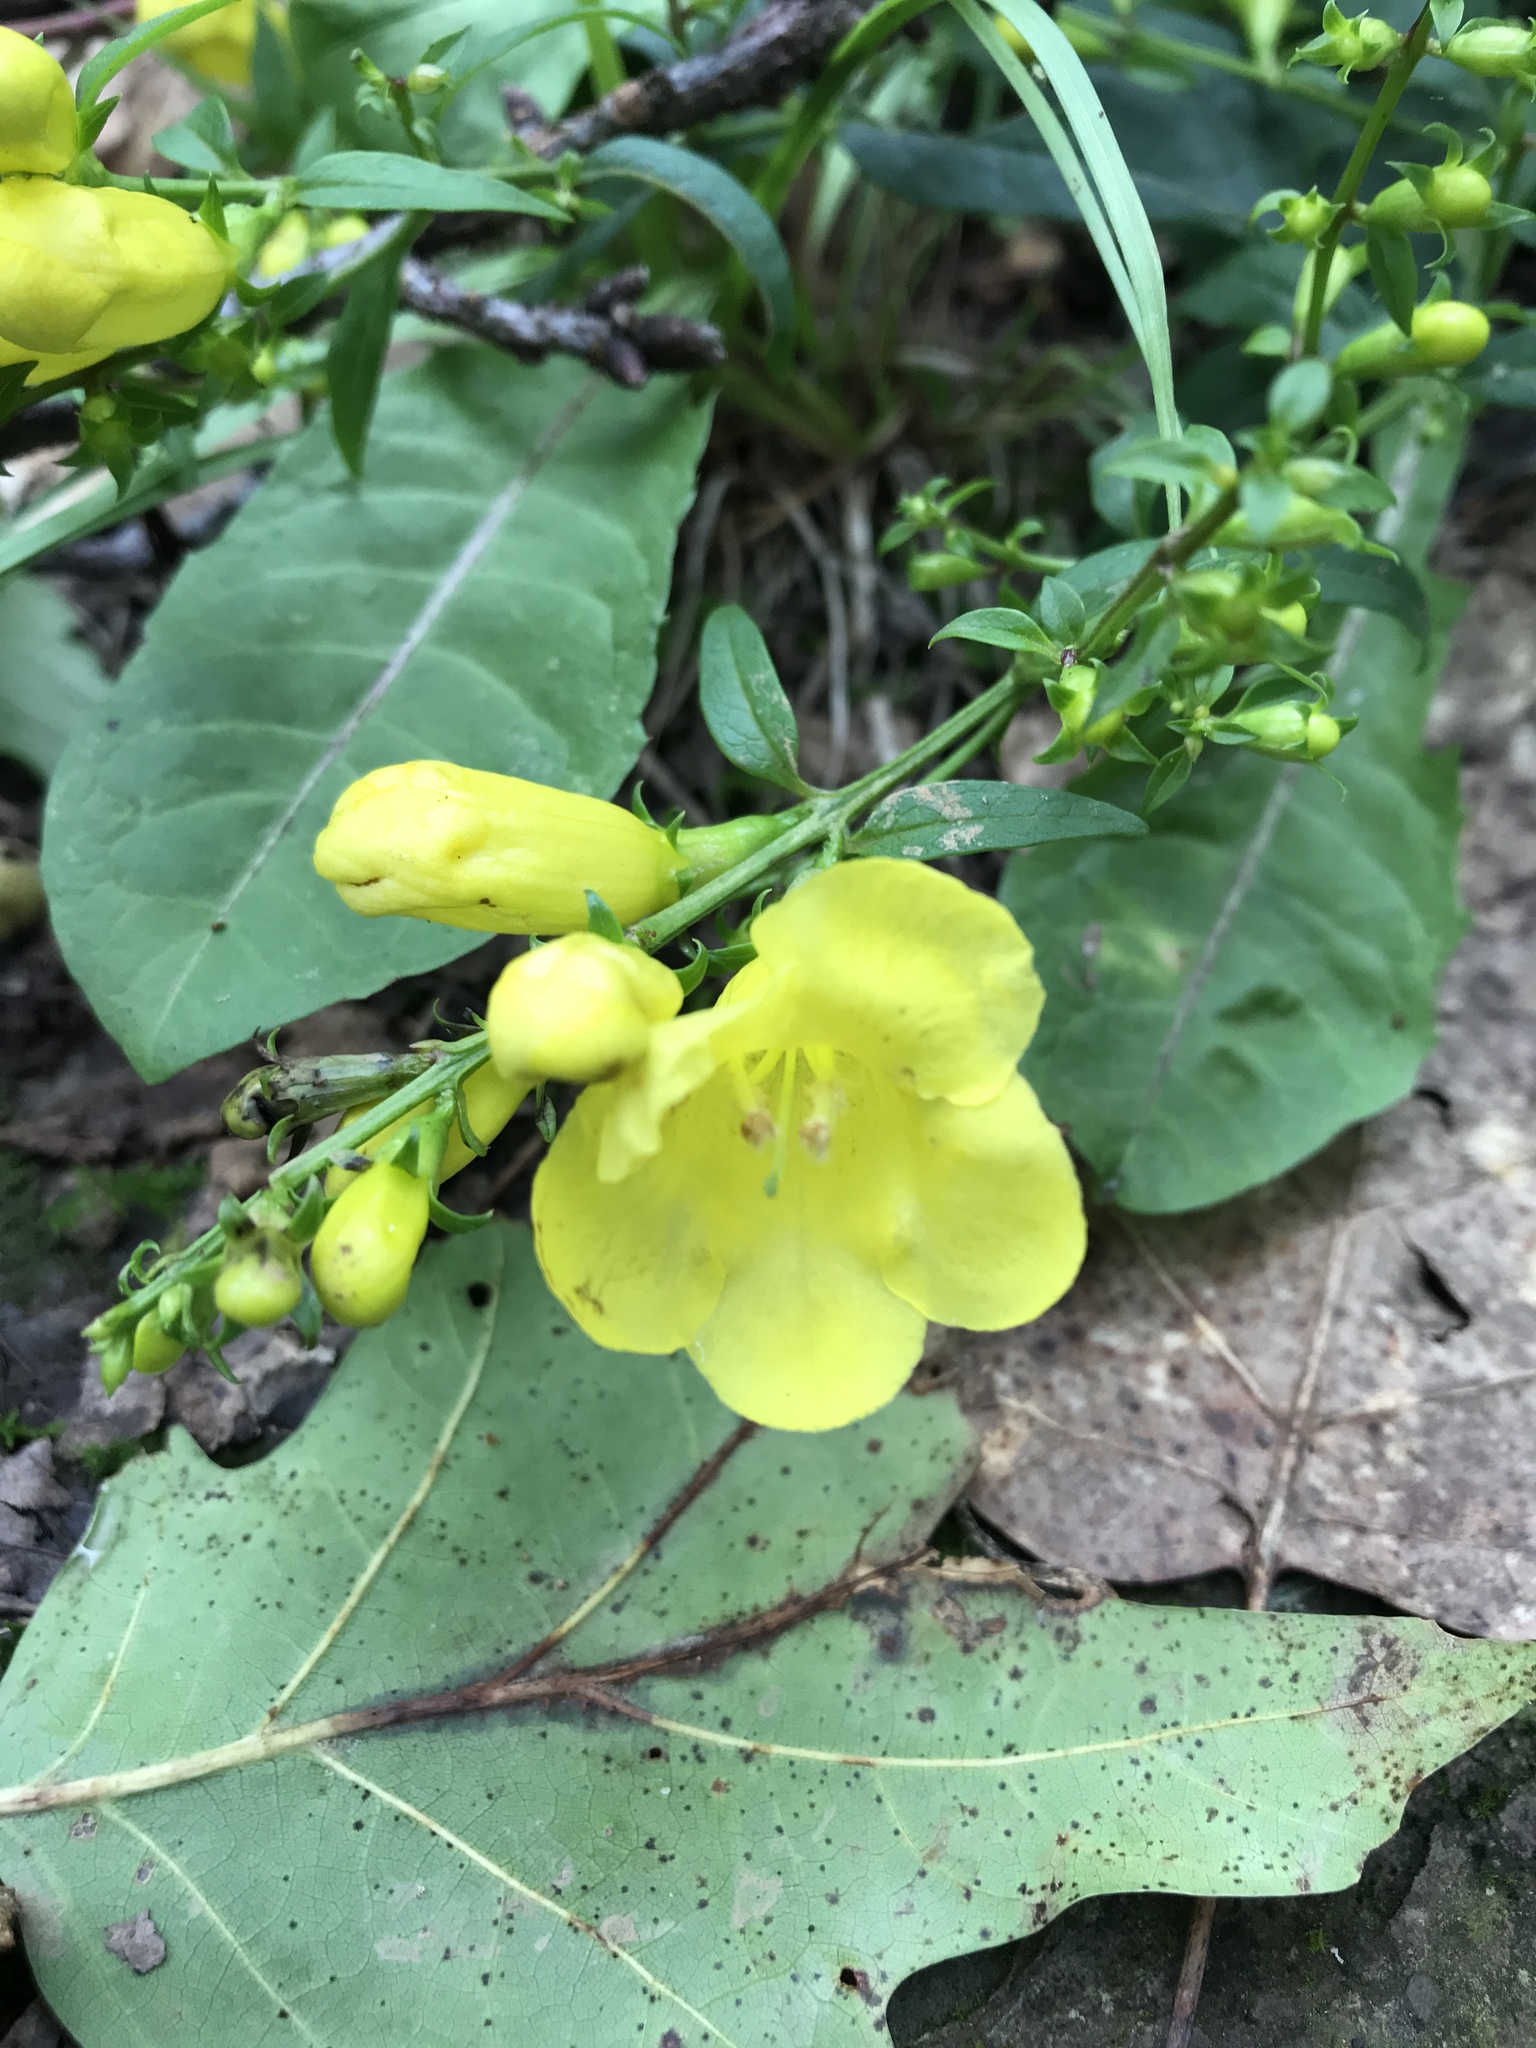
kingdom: Plantae
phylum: Tracheophyta
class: Magnoliopsida
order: Lamiales
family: Orobanchaceae
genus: Aureolaria
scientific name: Aureolaria levigata
